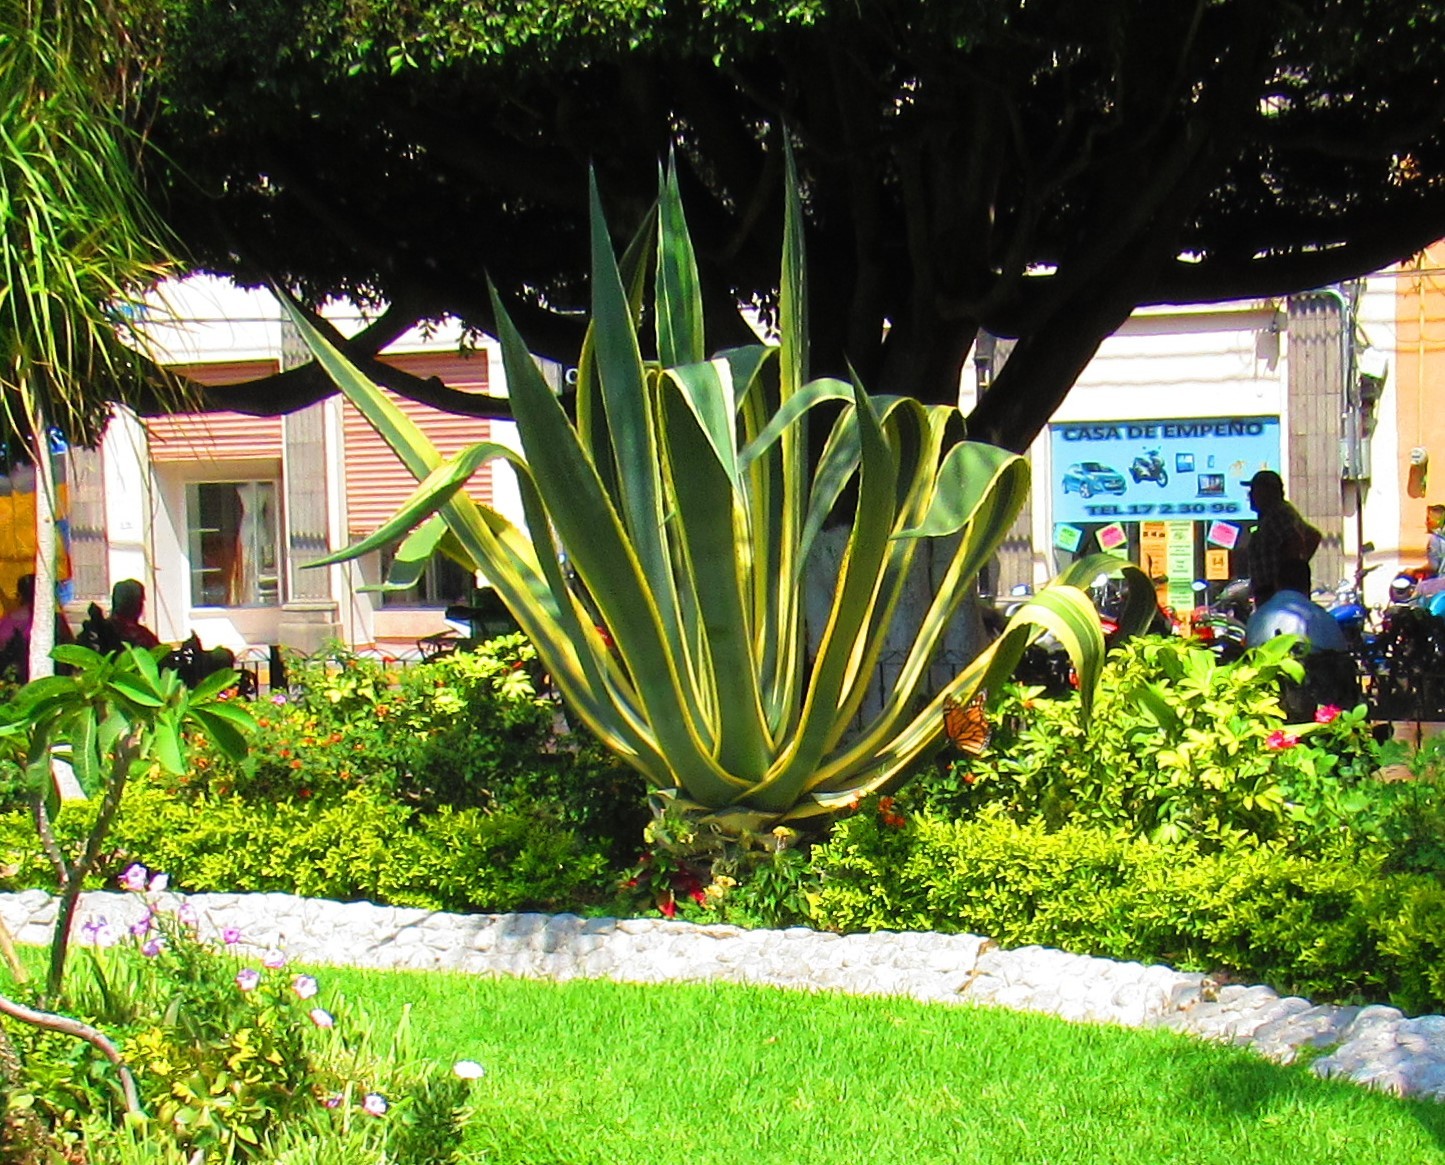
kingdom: Animalia
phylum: Arthropoda
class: Insecta
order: Lepidoptera
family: Nymphalidae
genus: Danaus
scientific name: Danaus plexippus
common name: Monarch
